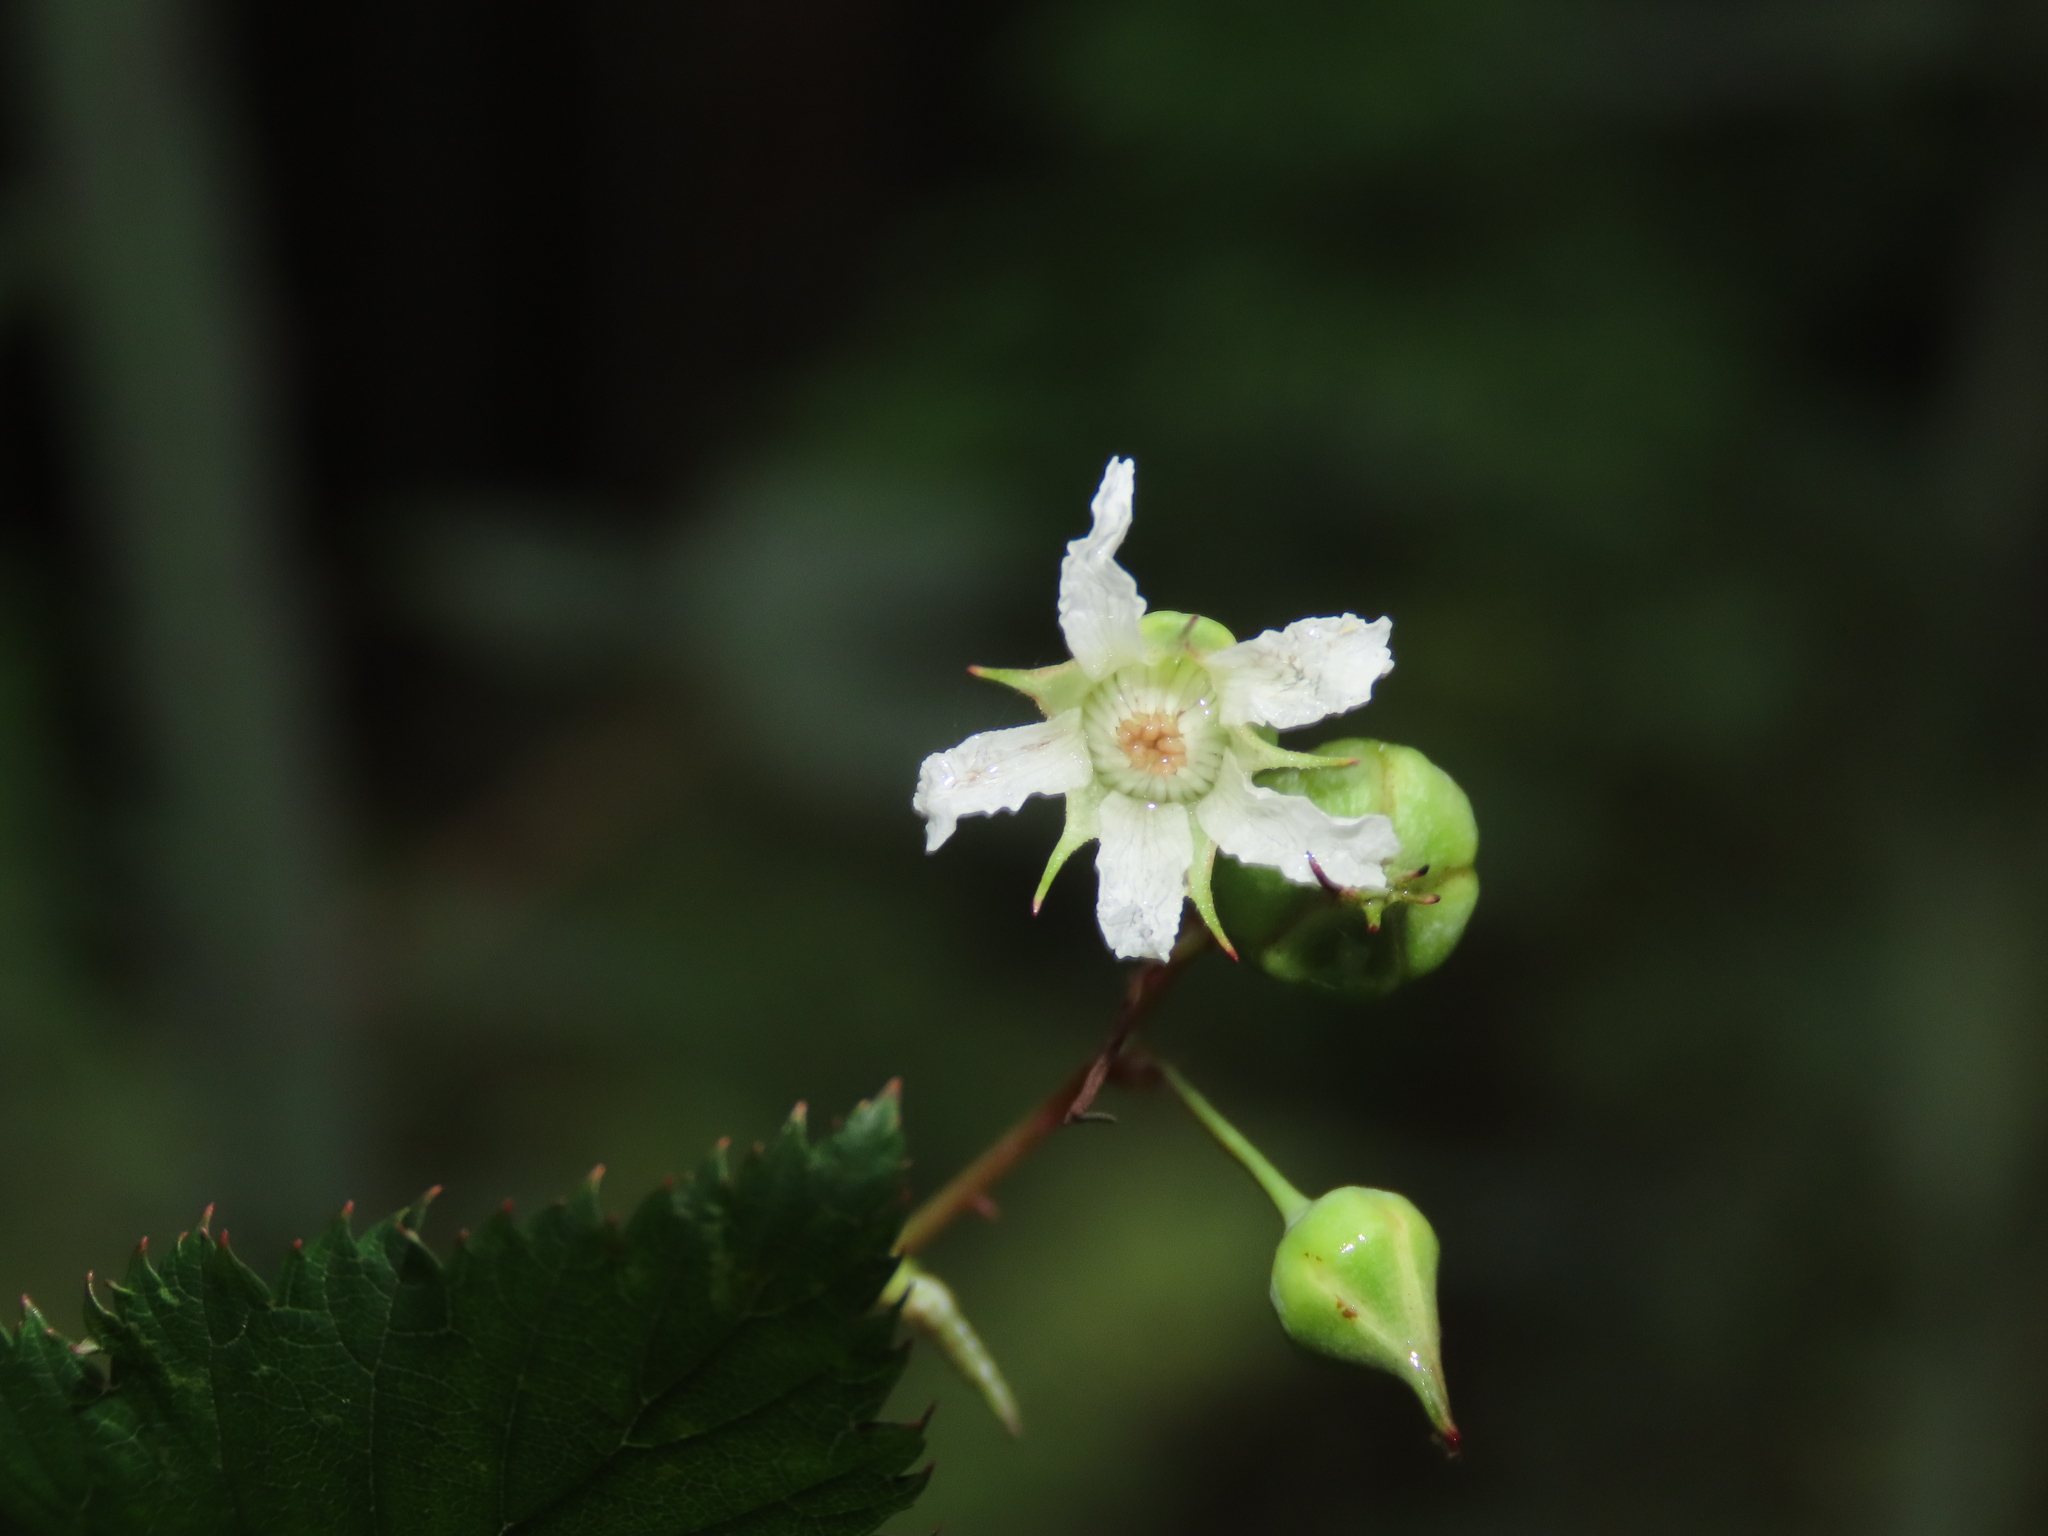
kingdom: Plantae
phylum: Tracheophyta
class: Magnoliopsida
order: Rosales
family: Rosaceae
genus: Rubus
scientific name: Rubus subcrataegifolius
